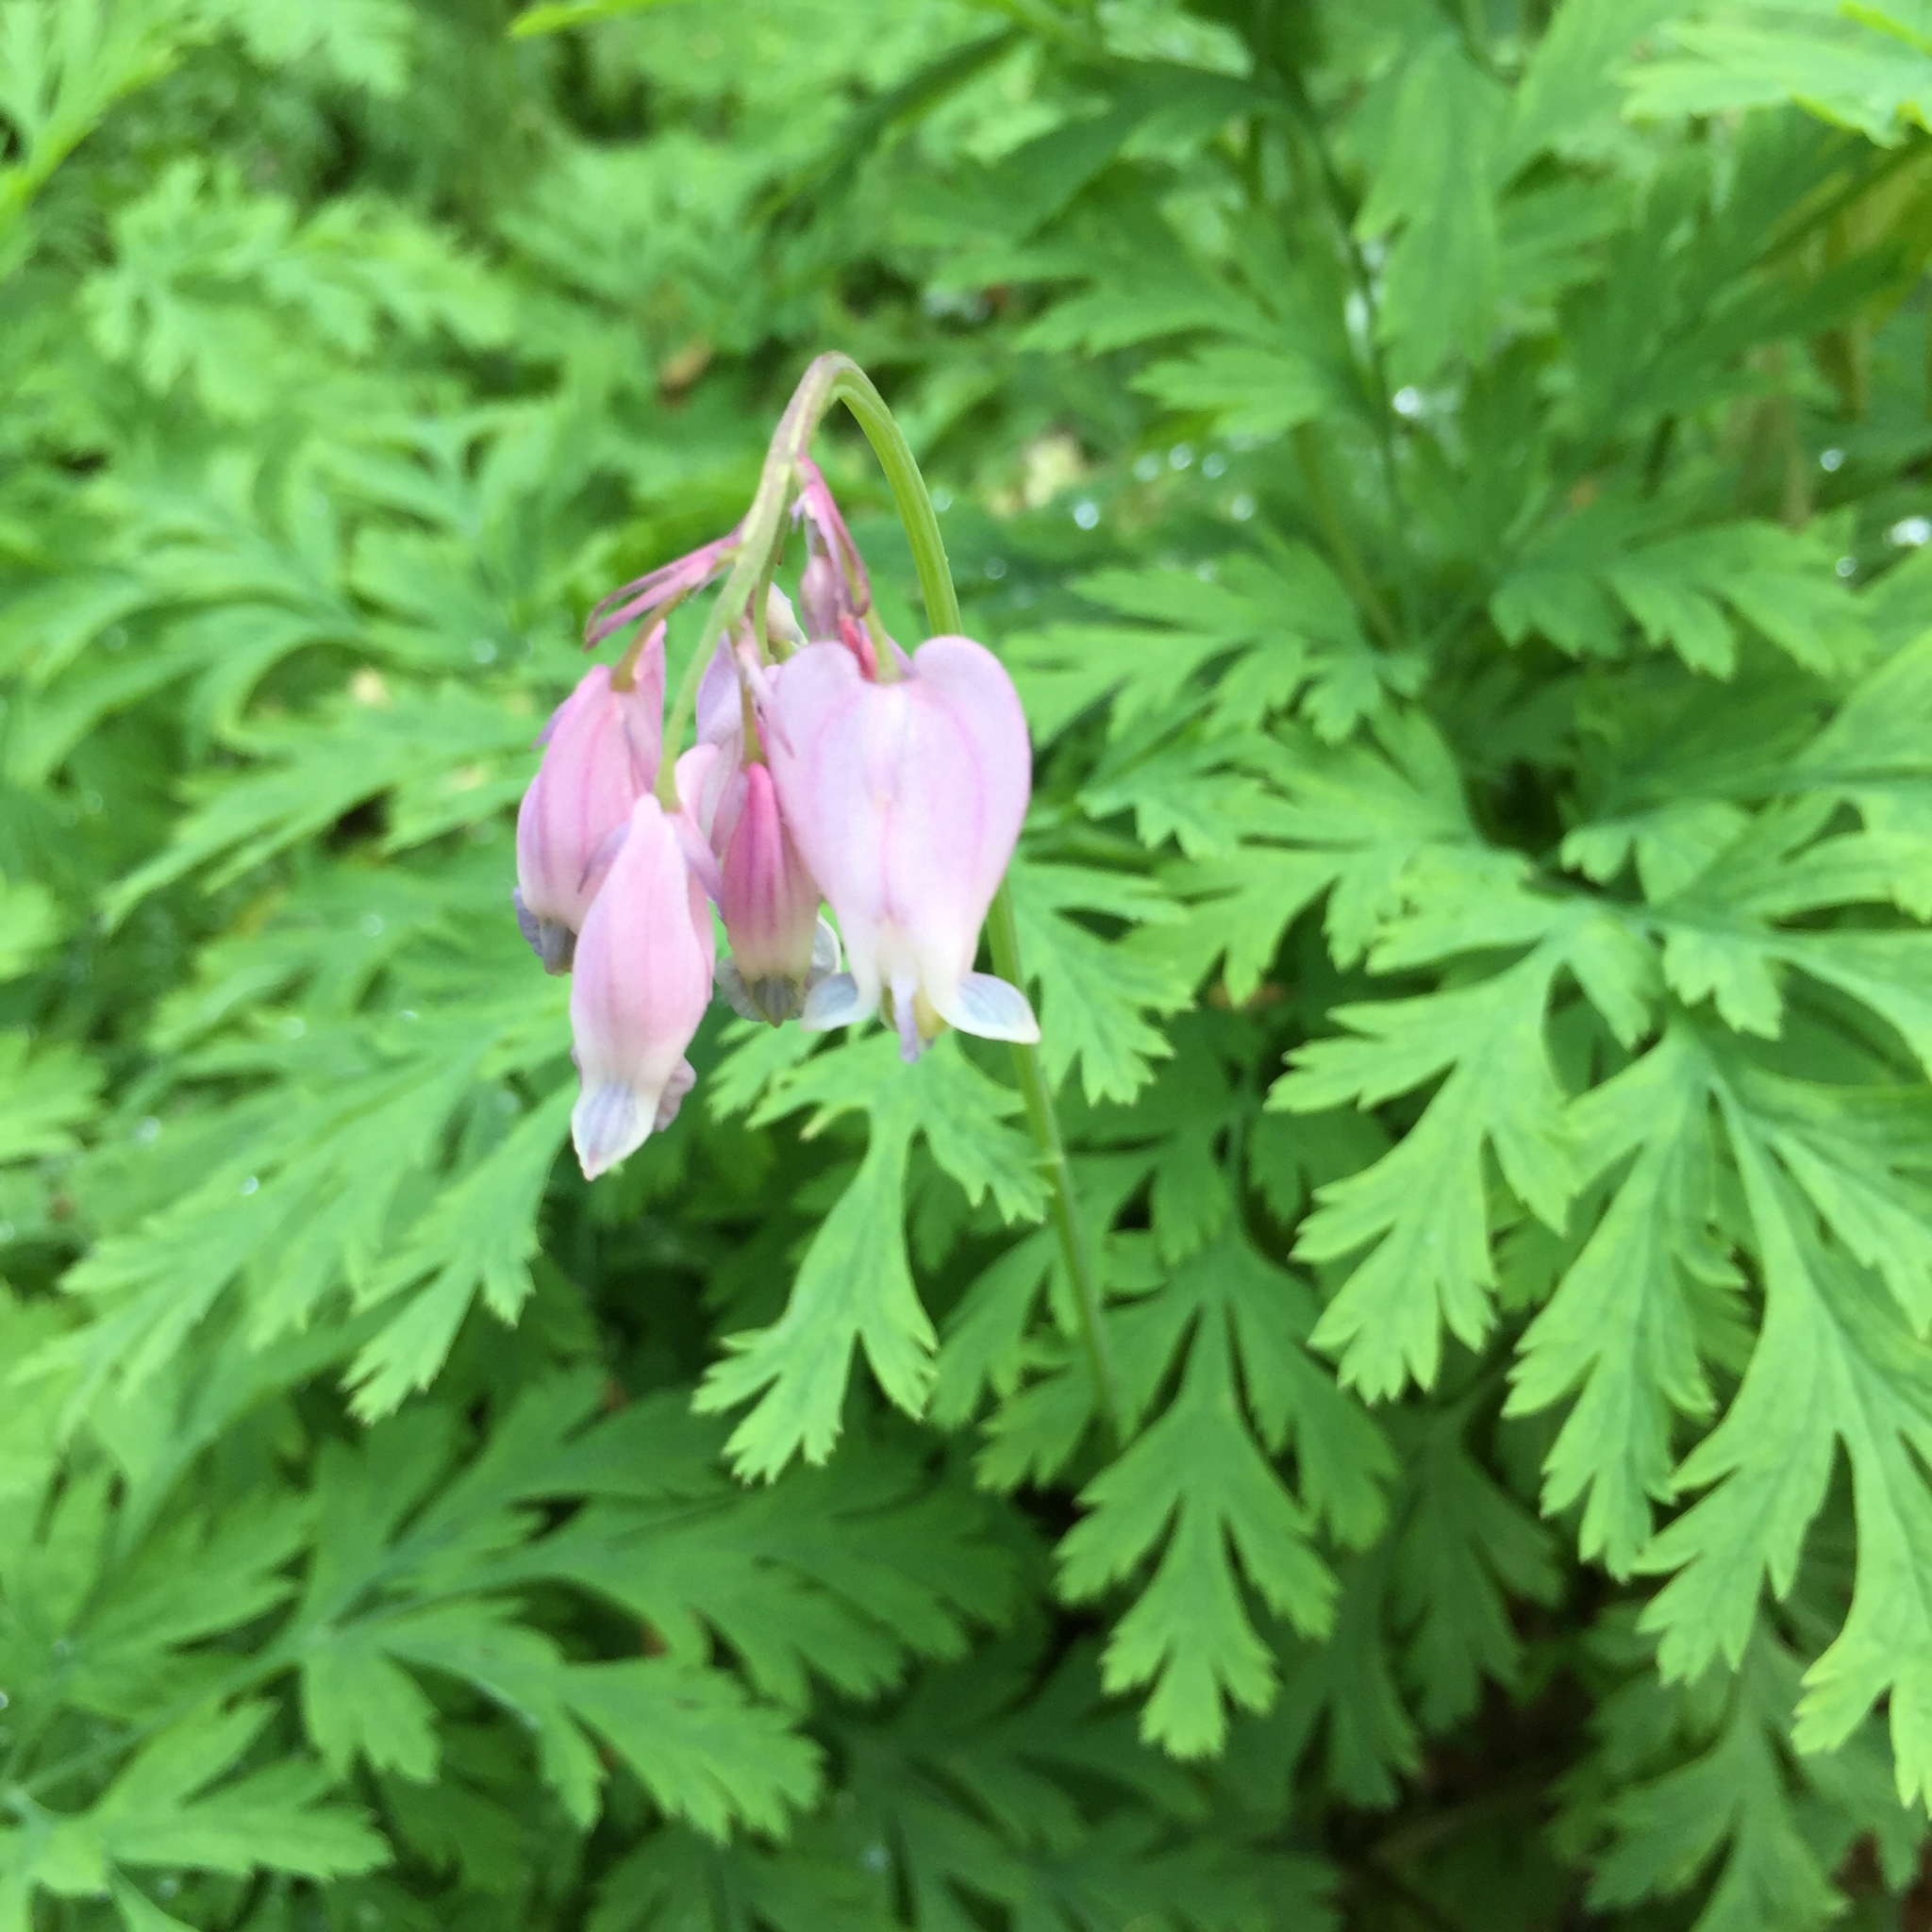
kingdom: Plantae
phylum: Tracheophyta
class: Magnoliopsida
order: Ranunculales
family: Papaveraceae
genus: Dicentra
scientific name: Dicentra formosa
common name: Bleeding-heart
